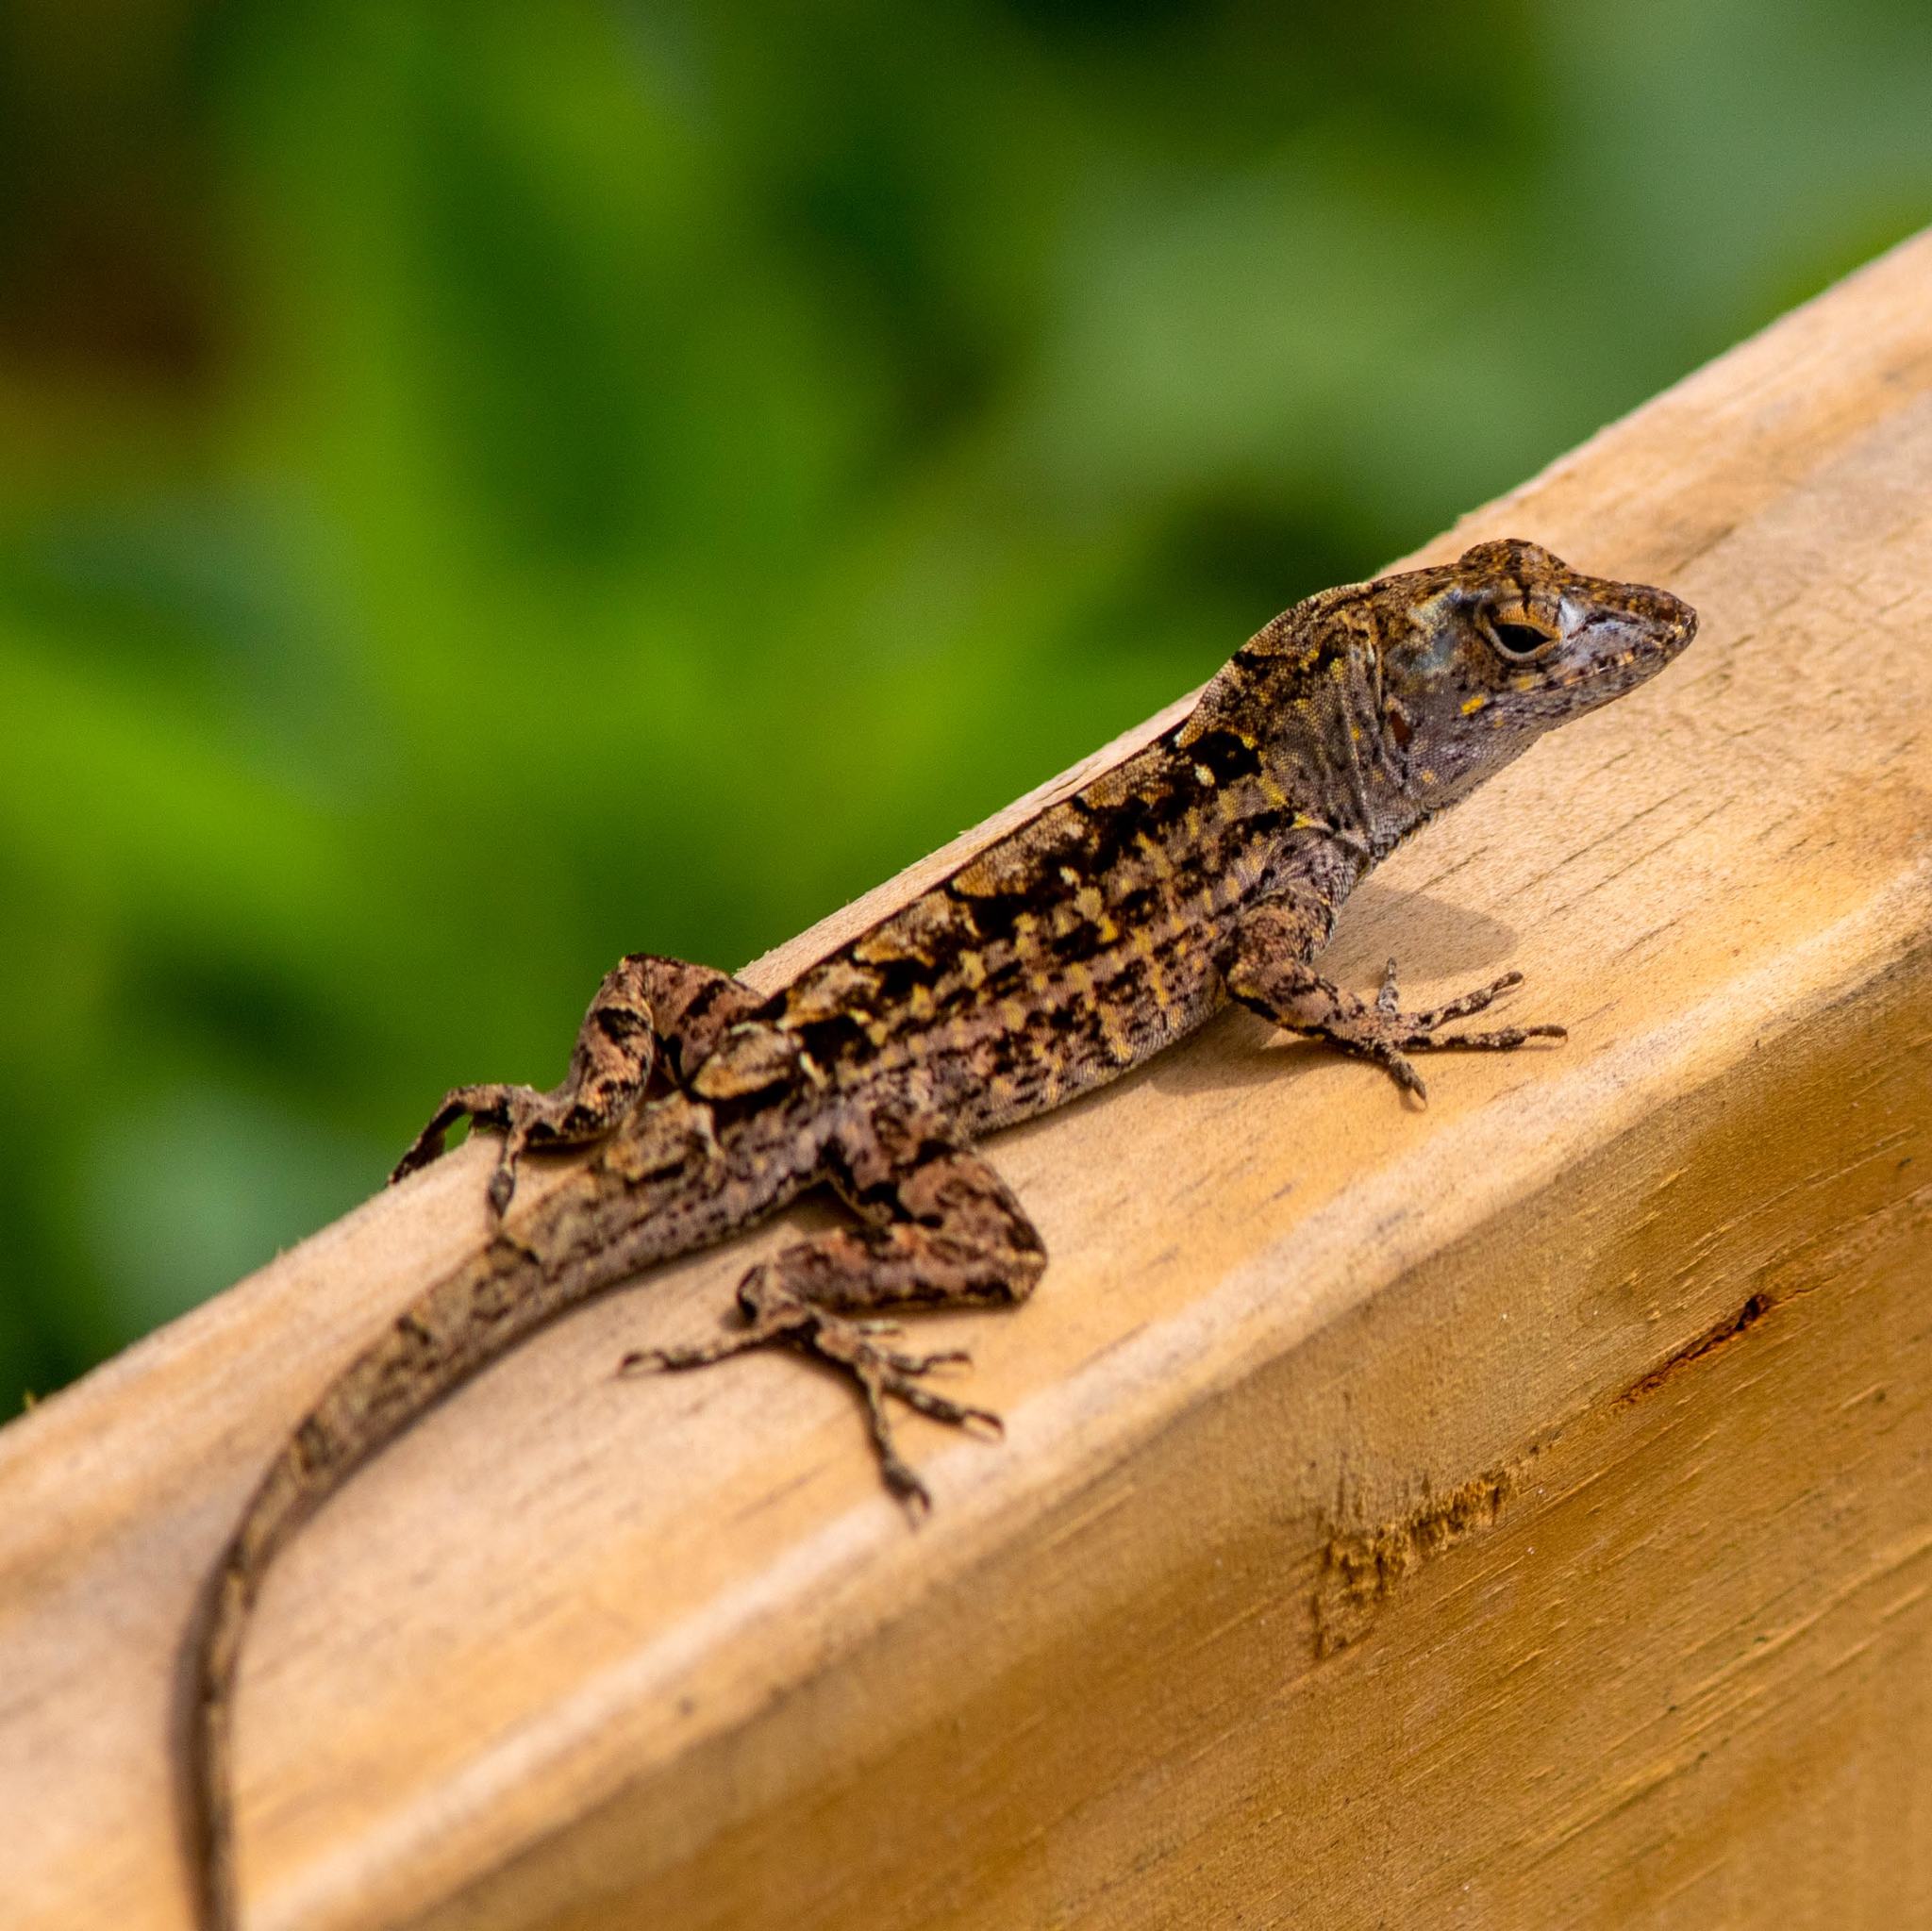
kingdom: Animalia
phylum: Chordata
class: Squamata
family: Dactyloidae
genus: Anolis
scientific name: Anolis sagrei
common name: Brown anole
